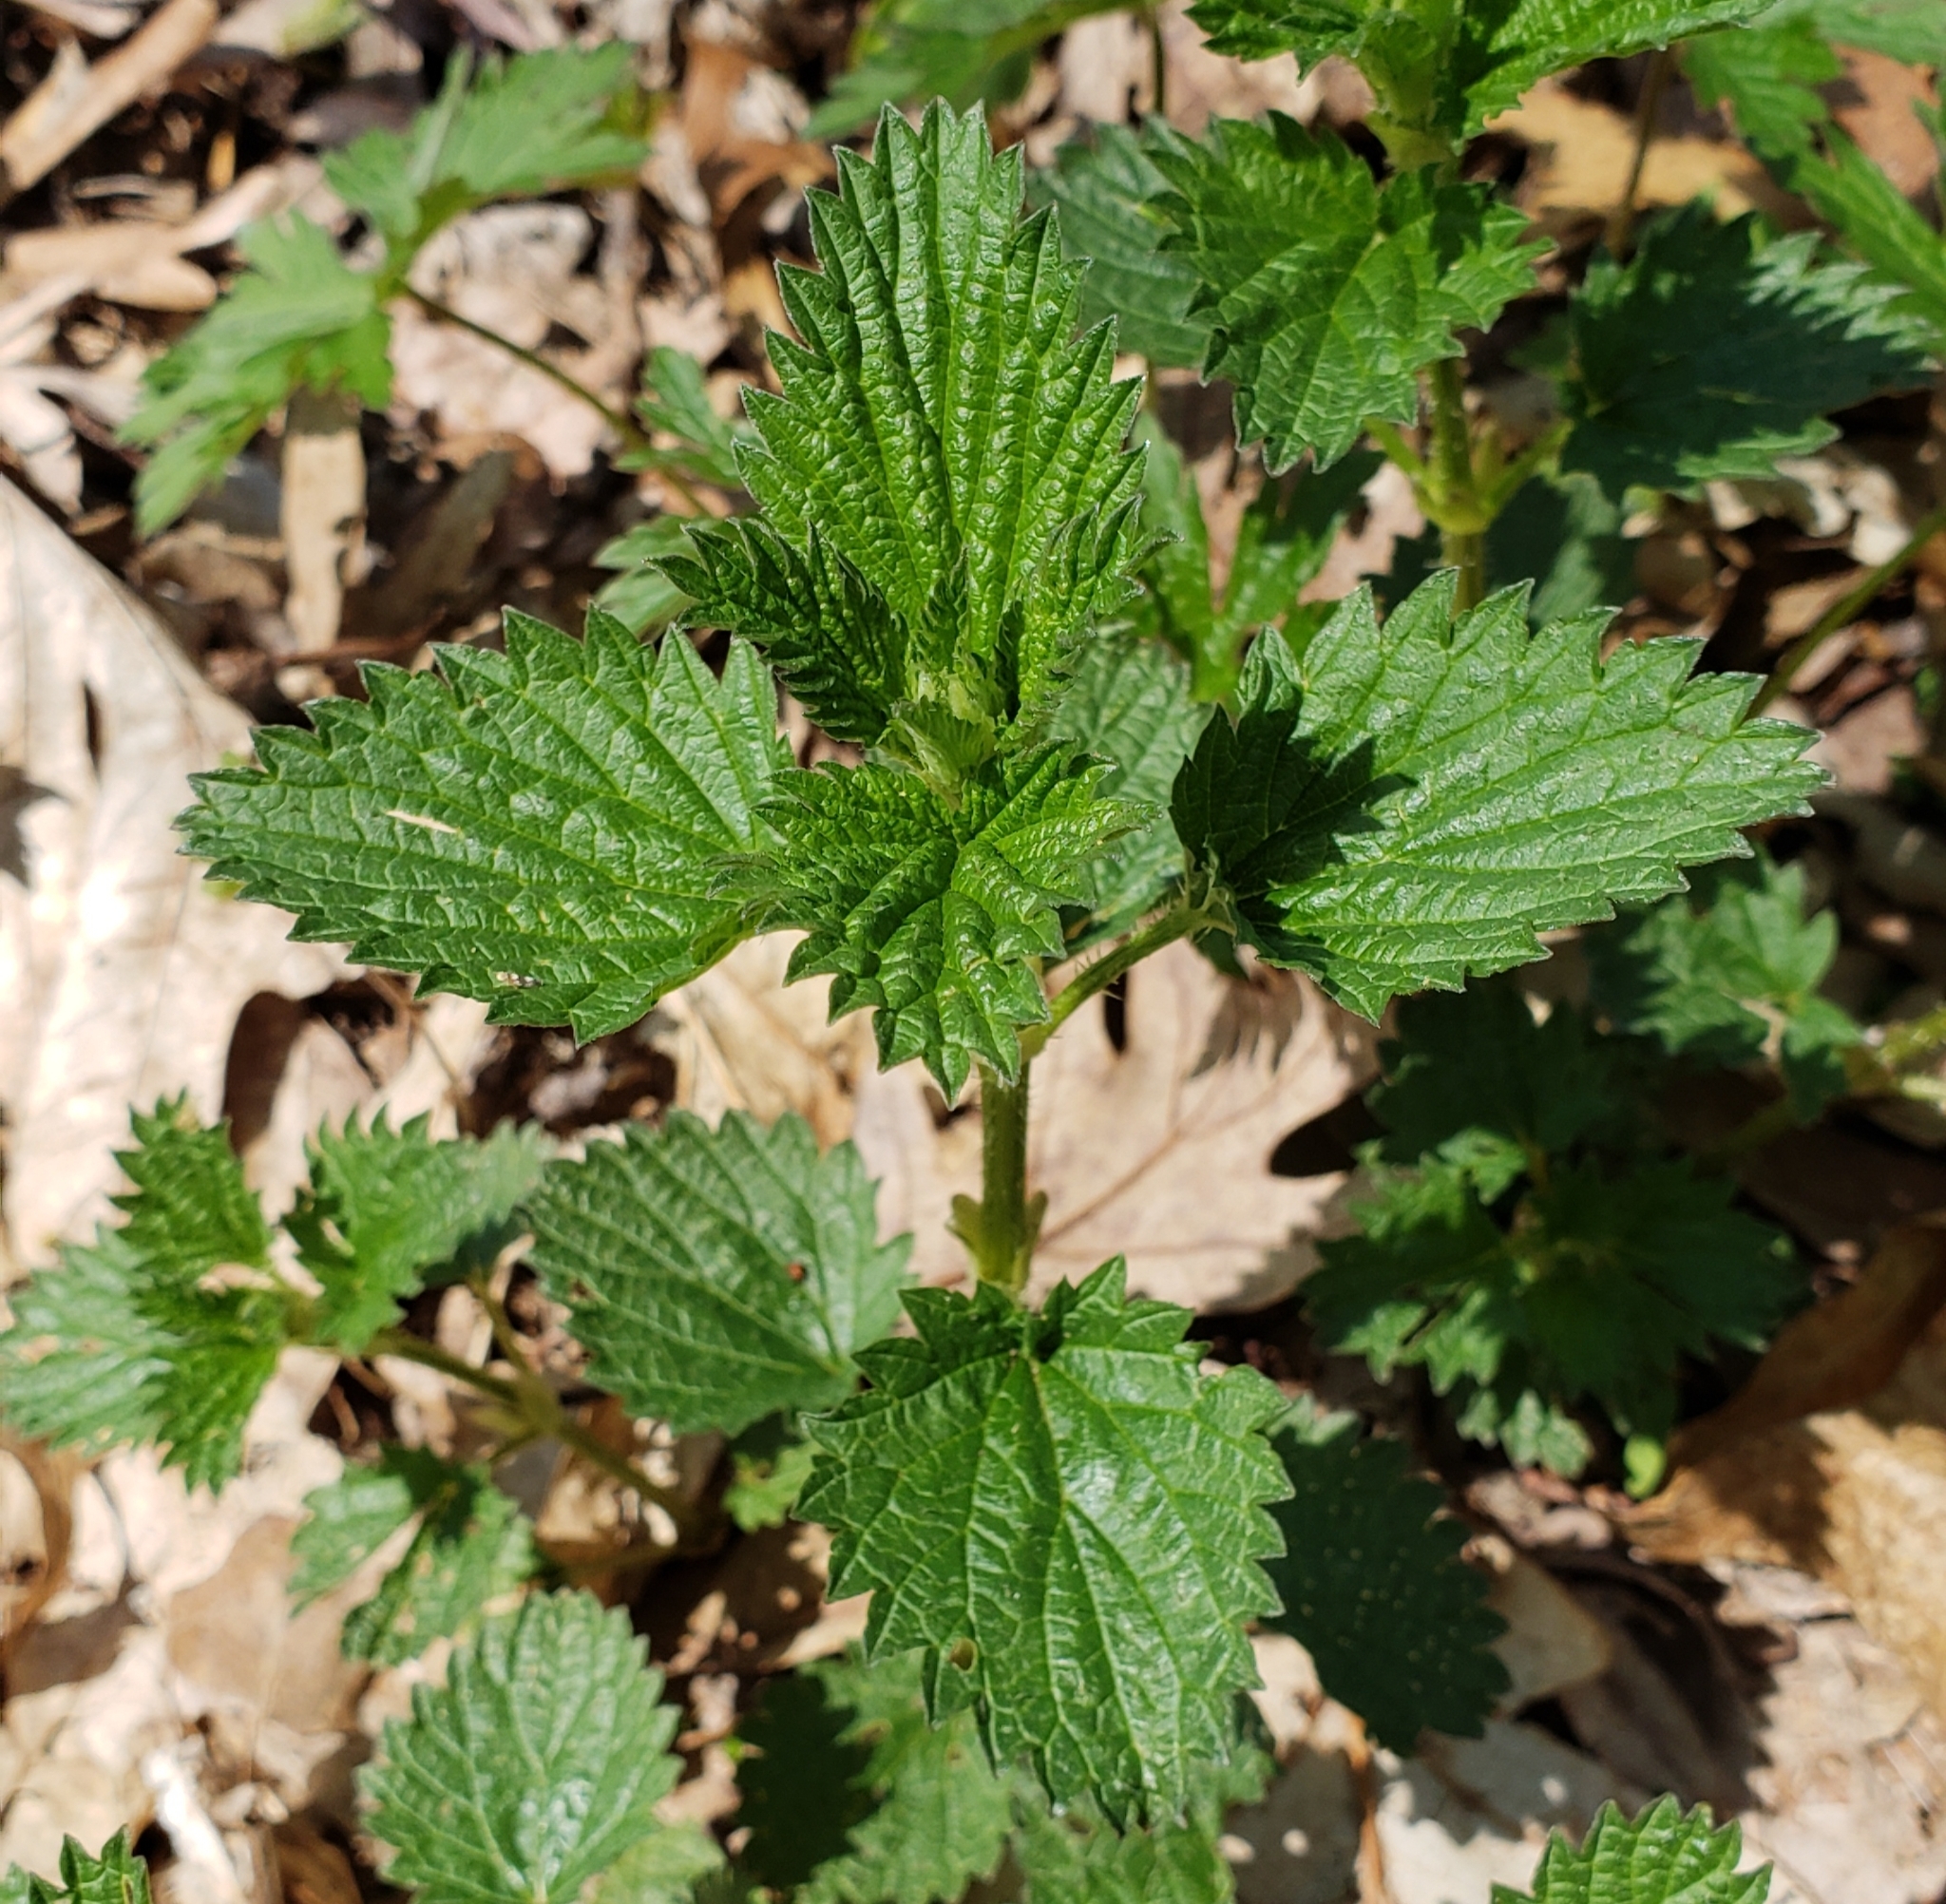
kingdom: Plantae
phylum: Tracheophyta
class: Magnoliopsida
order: Rosales
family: Urticaceae
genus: Urtica
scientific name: Urtica dioica
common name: Common nettle
